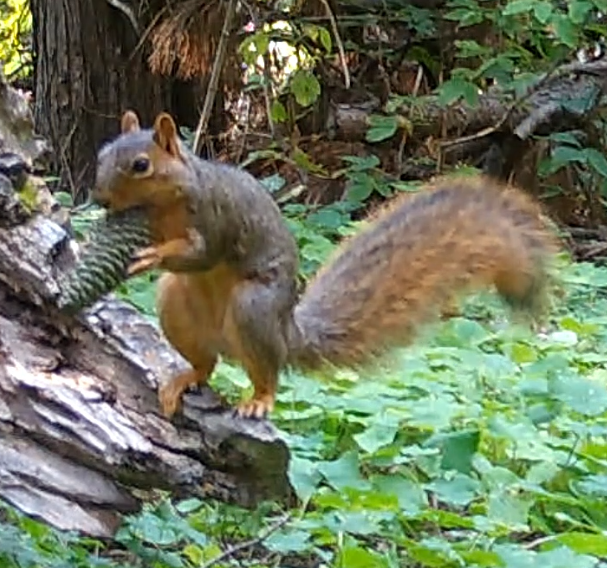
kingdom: Animalia
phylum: Chordata
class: Mammalia
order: Rodentia
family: Sciuridae
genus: Sciurus
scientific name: Sciurus niger
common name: Fox squirrel
